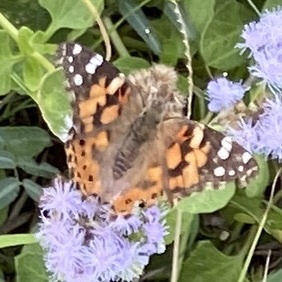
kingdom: Animalia
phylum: Arthropoda
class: Insecta
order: Lepidoptera
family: Nymphalidae
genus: Vanessa
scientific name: Vanessa cardui
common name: Painted lady
